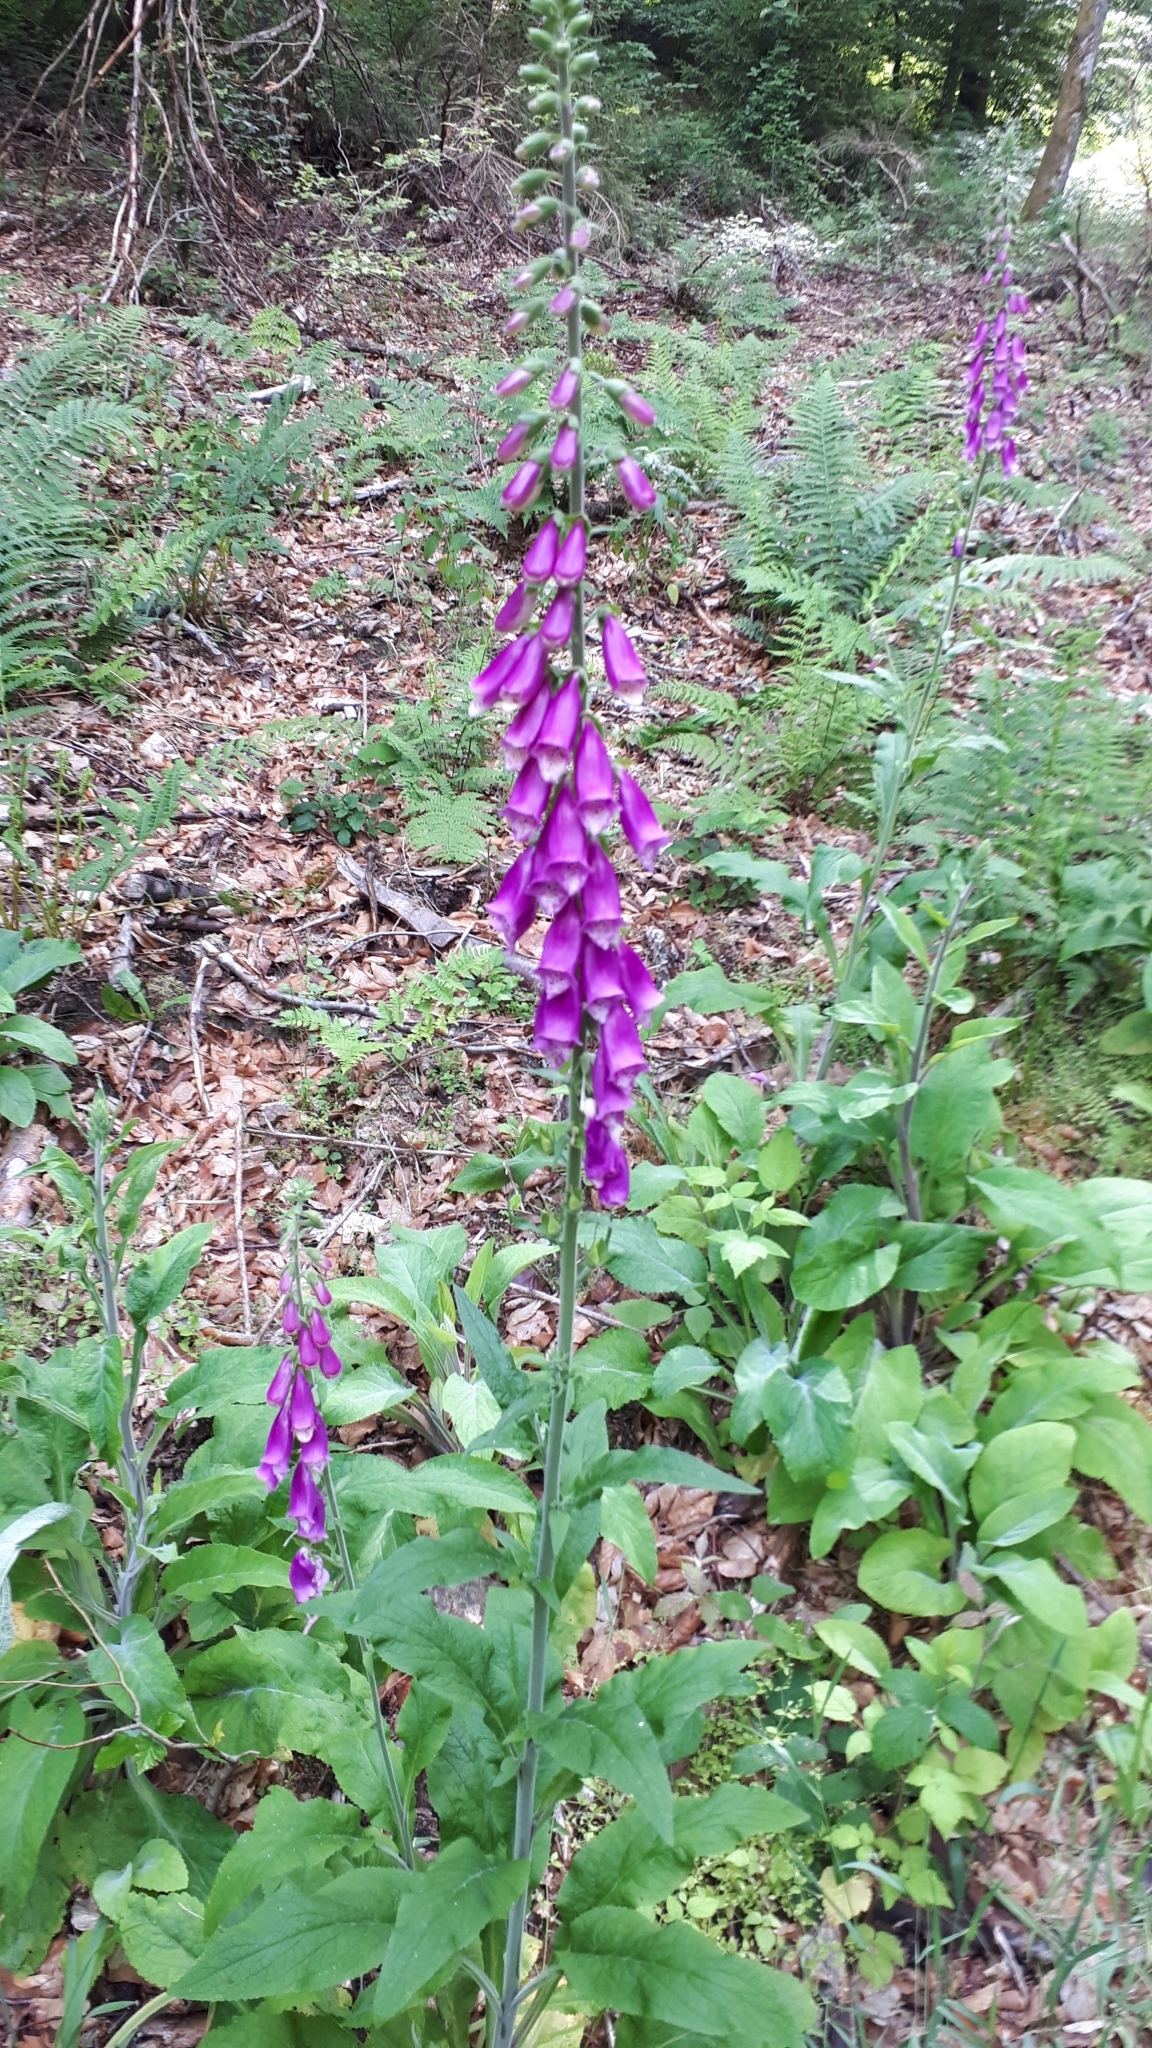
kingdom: Plantae
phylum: Tracheophyta
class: Magnoliopsida
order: Lamiales
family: Plantaginaceae
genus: Digitalis
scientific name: Digitalis purpurea
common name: Foxglove
